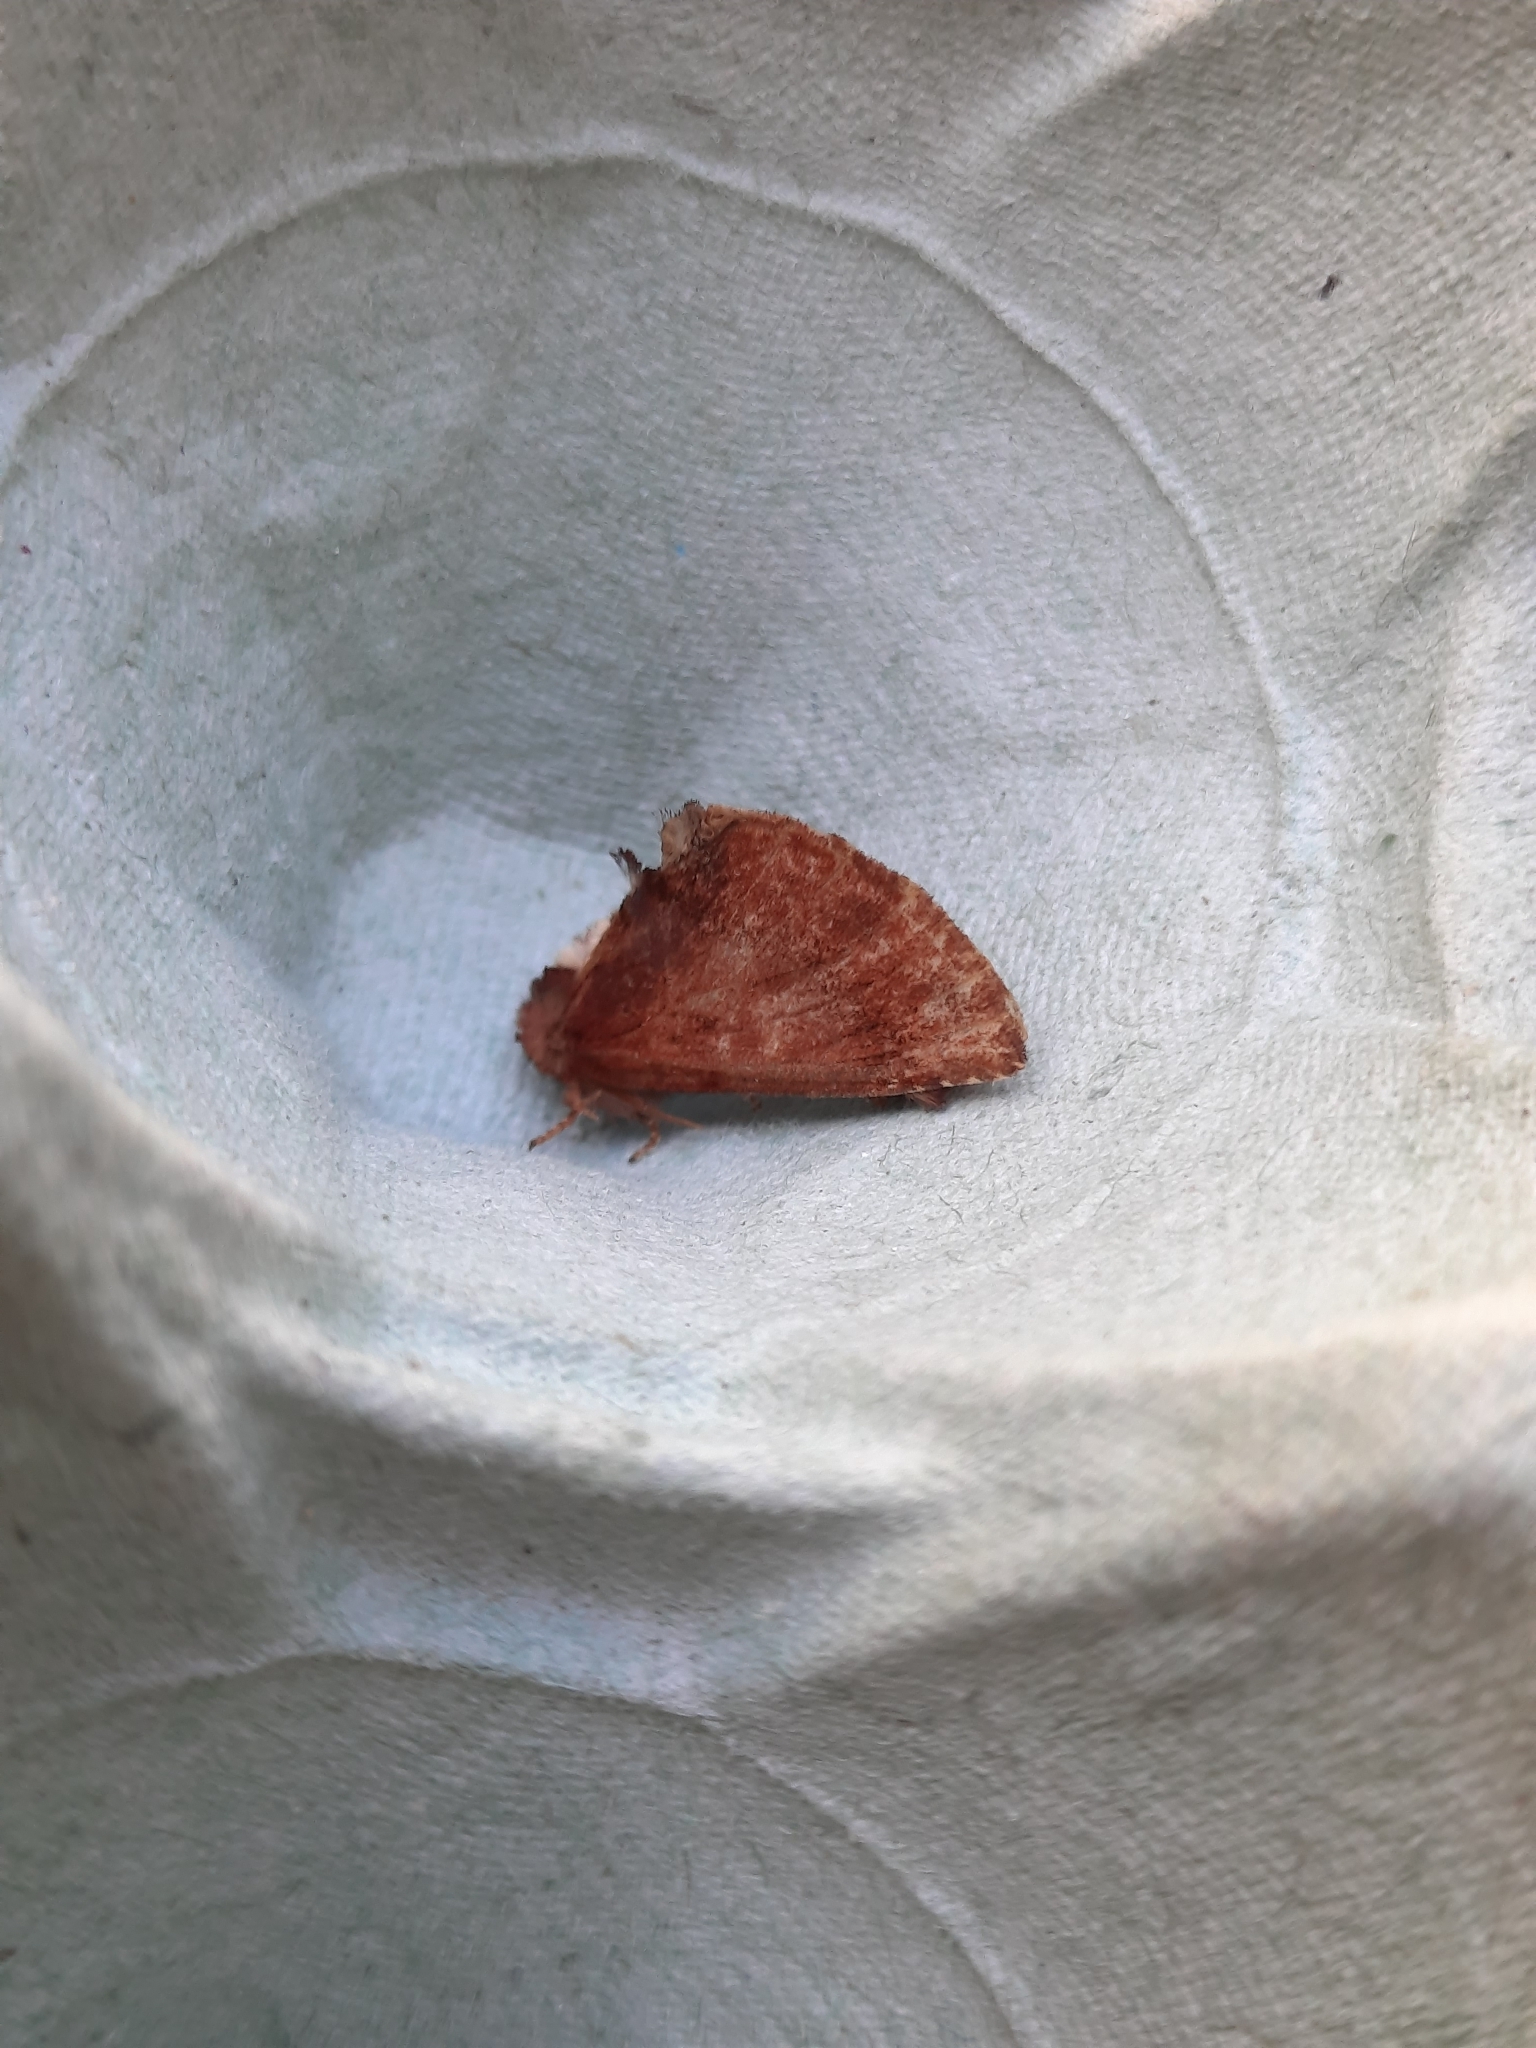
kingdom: Animalia
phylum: Arthropoda
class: Insecta
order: Lepidoptera
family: Notodontidae
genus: Ptilodon
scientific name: Ptilodon capucina
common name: Coxcomb prominent
